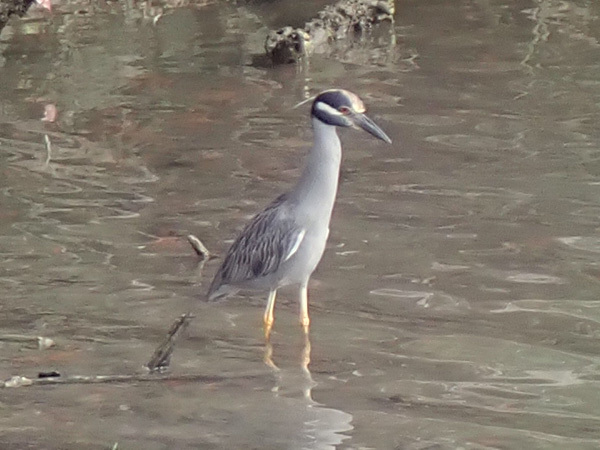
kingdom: Animalia
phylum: Chordata
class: Aves
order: Pelecaniformes
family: Ardeidae
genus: Nyctanassa
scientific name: Nyctanassa violacea
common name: Yellow-crowned night heron
